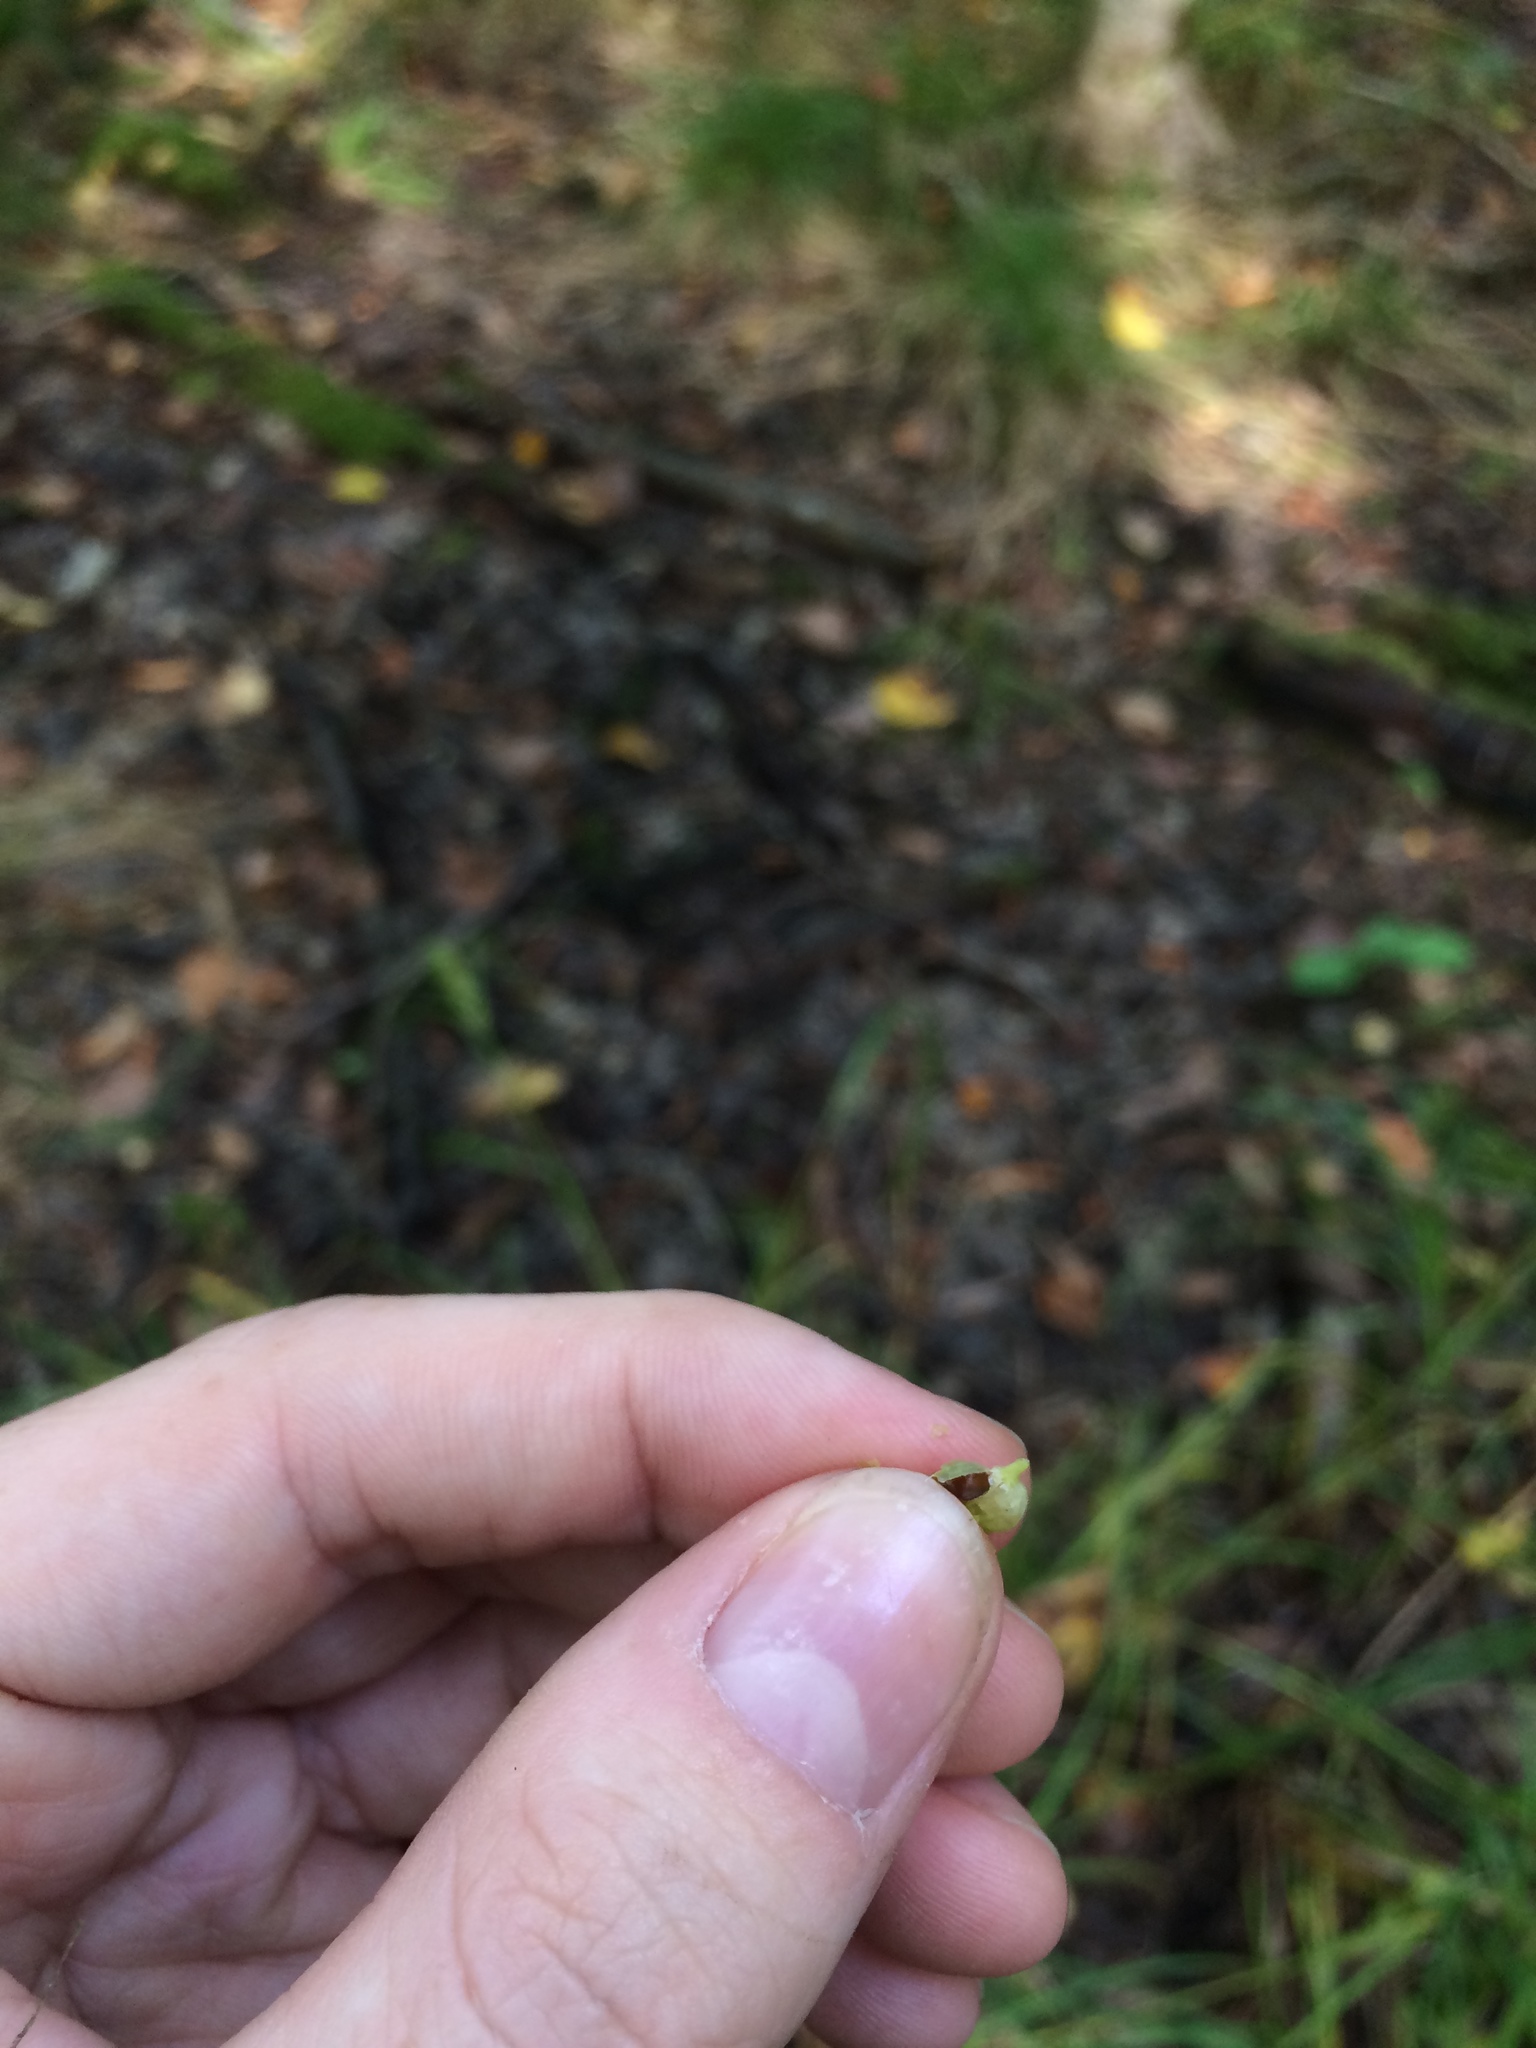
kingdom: Plantae
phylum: Tracheophyta
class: Liliopsida
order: Poales
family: Cyperaceae
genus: Carex
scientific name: Carex lupulina
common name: Hop sedge
